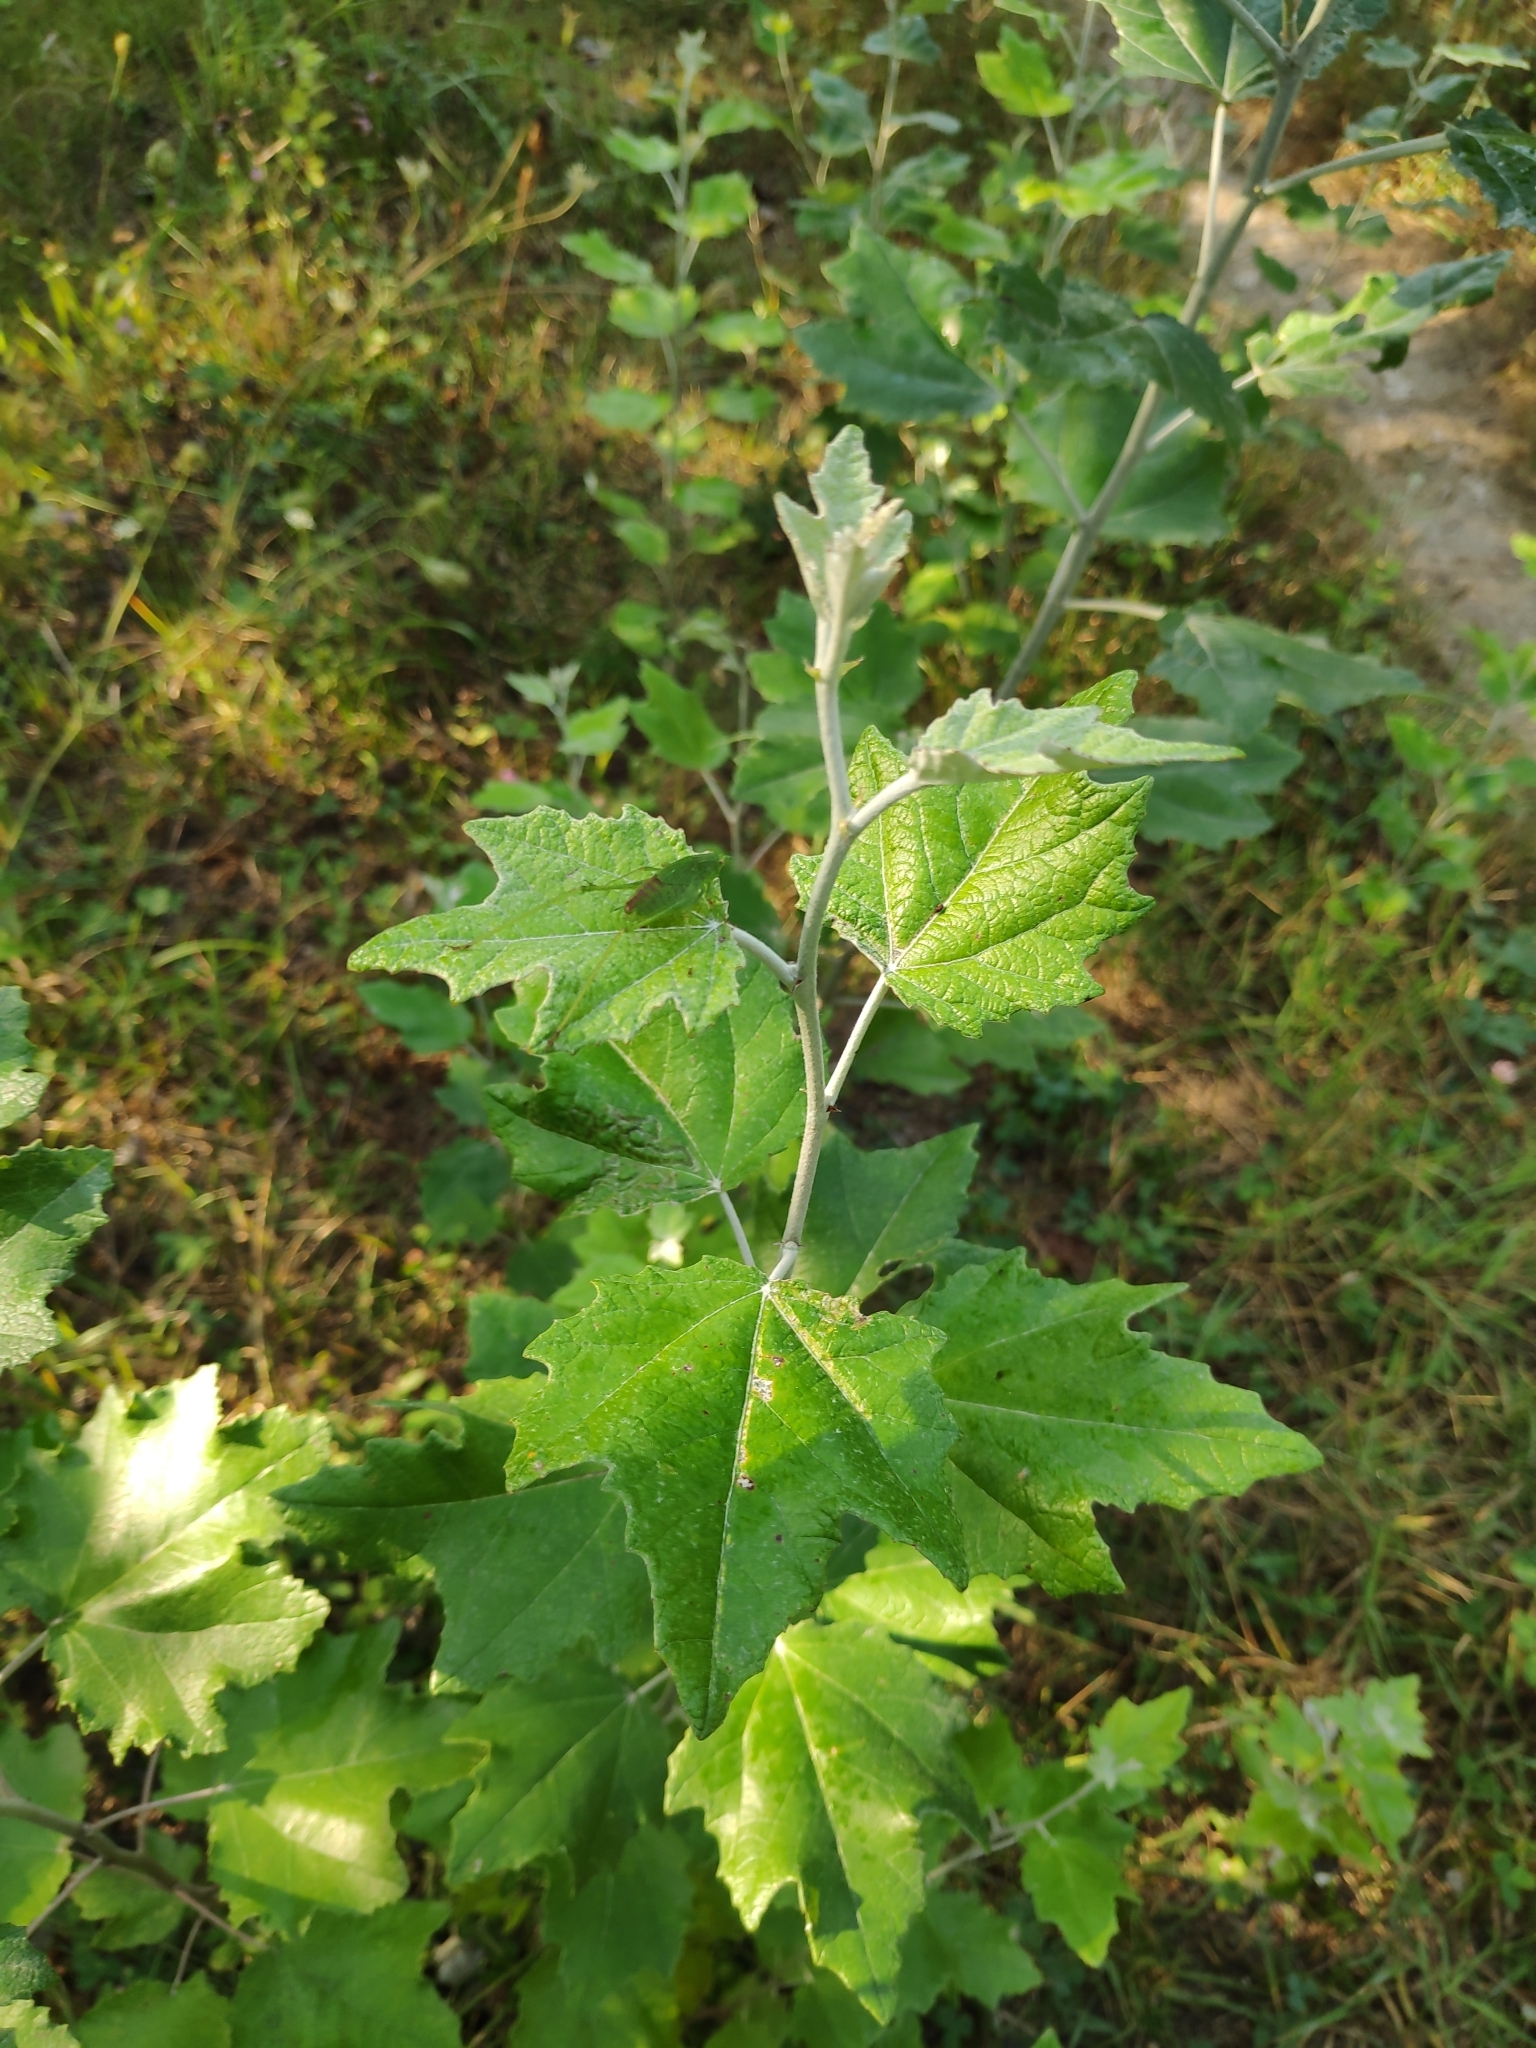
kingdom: Plantae
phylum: Tracheophyta
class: Magnoliopsida
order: Malpighiales
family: Salicaceae
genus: Populus
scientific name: Populus alba
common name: White poplar
